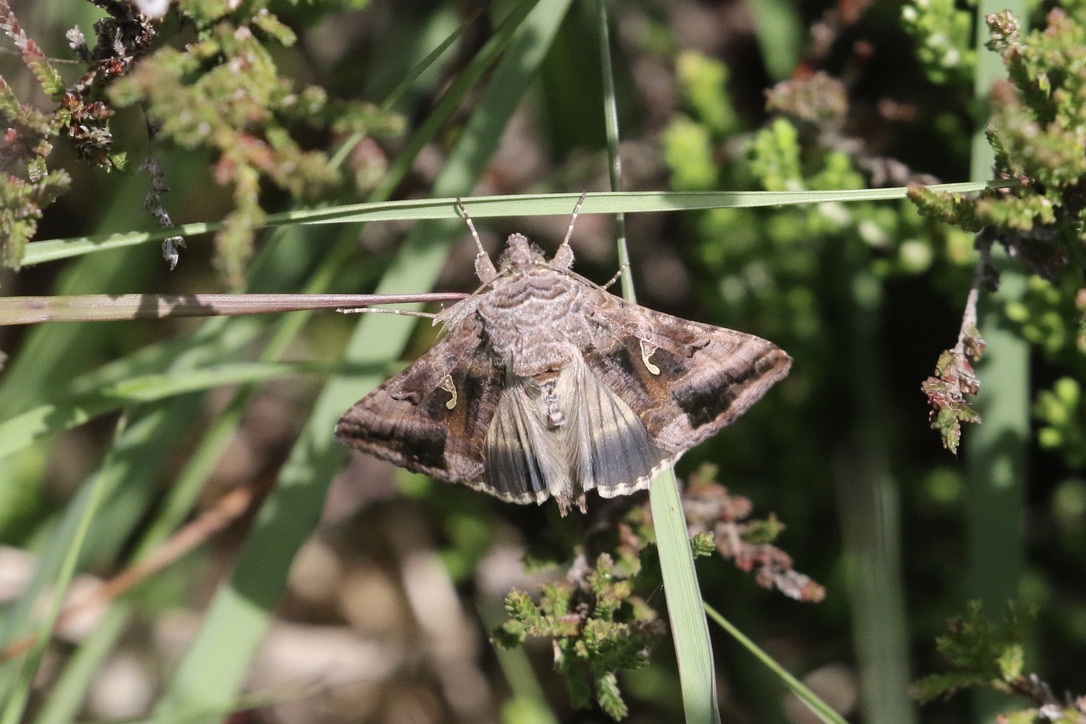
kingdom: Animalia
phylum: Arthropoda
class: Insecta
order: Lepidoptera
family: Noctuidae
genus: Autographa
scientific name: Autographa gamma
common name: Silver y
